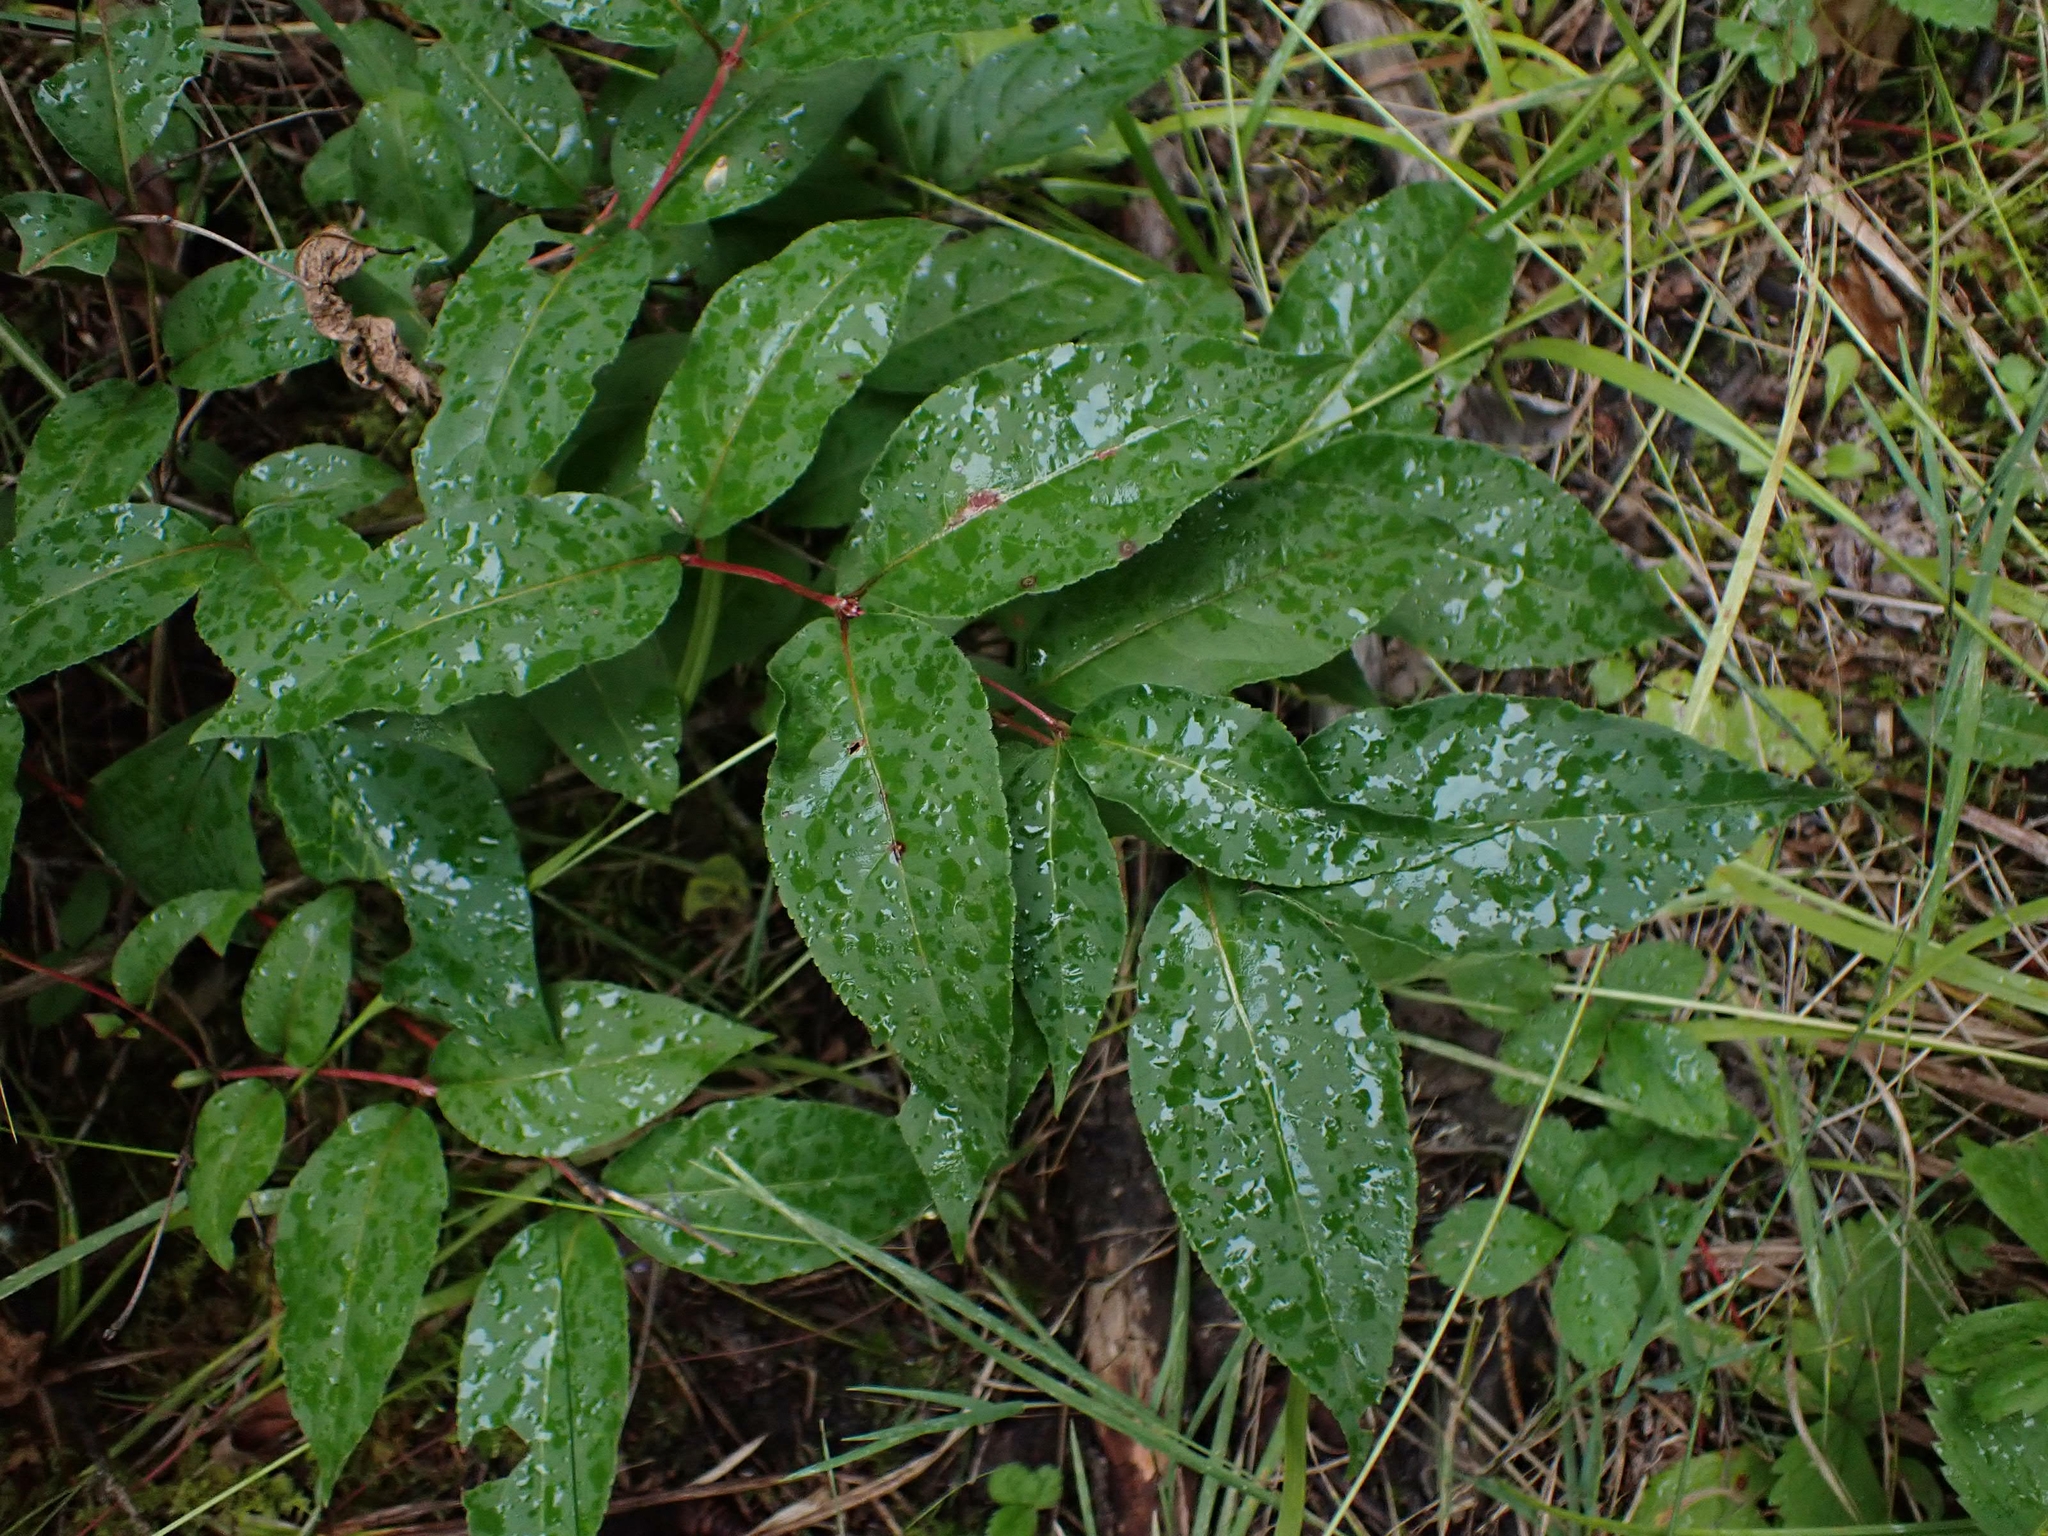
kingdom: Plantae
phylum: Tracheophyta
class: Magnoliopsida
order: Dipsacales
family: Caprifoliaceae
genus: Diervilla
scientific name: Diervilla lonicera
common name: Bush-honeysuckle
